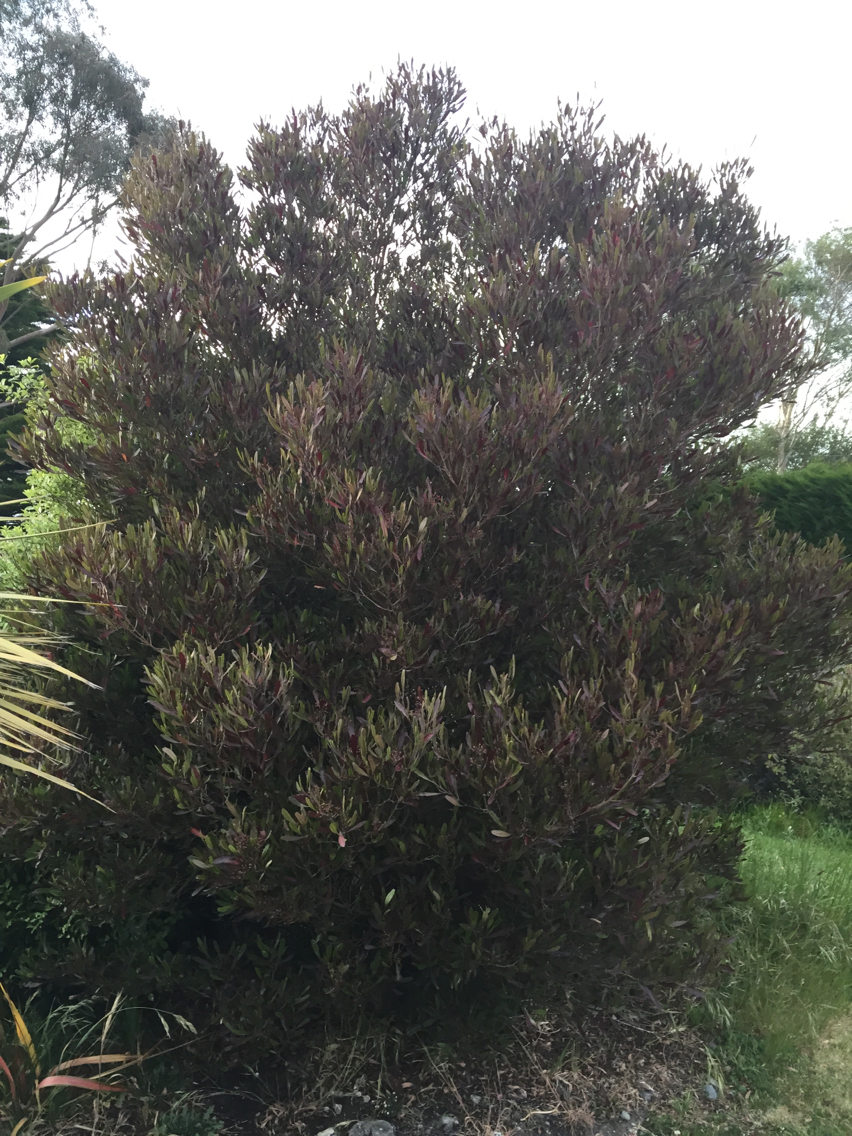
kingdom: Plantae
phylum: Tracheophyta
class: Magnoliopsida
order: Sapindales
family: Sapindaceae
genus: Dodonaea
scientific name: Dodonaea viscosa
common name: Hopbush
